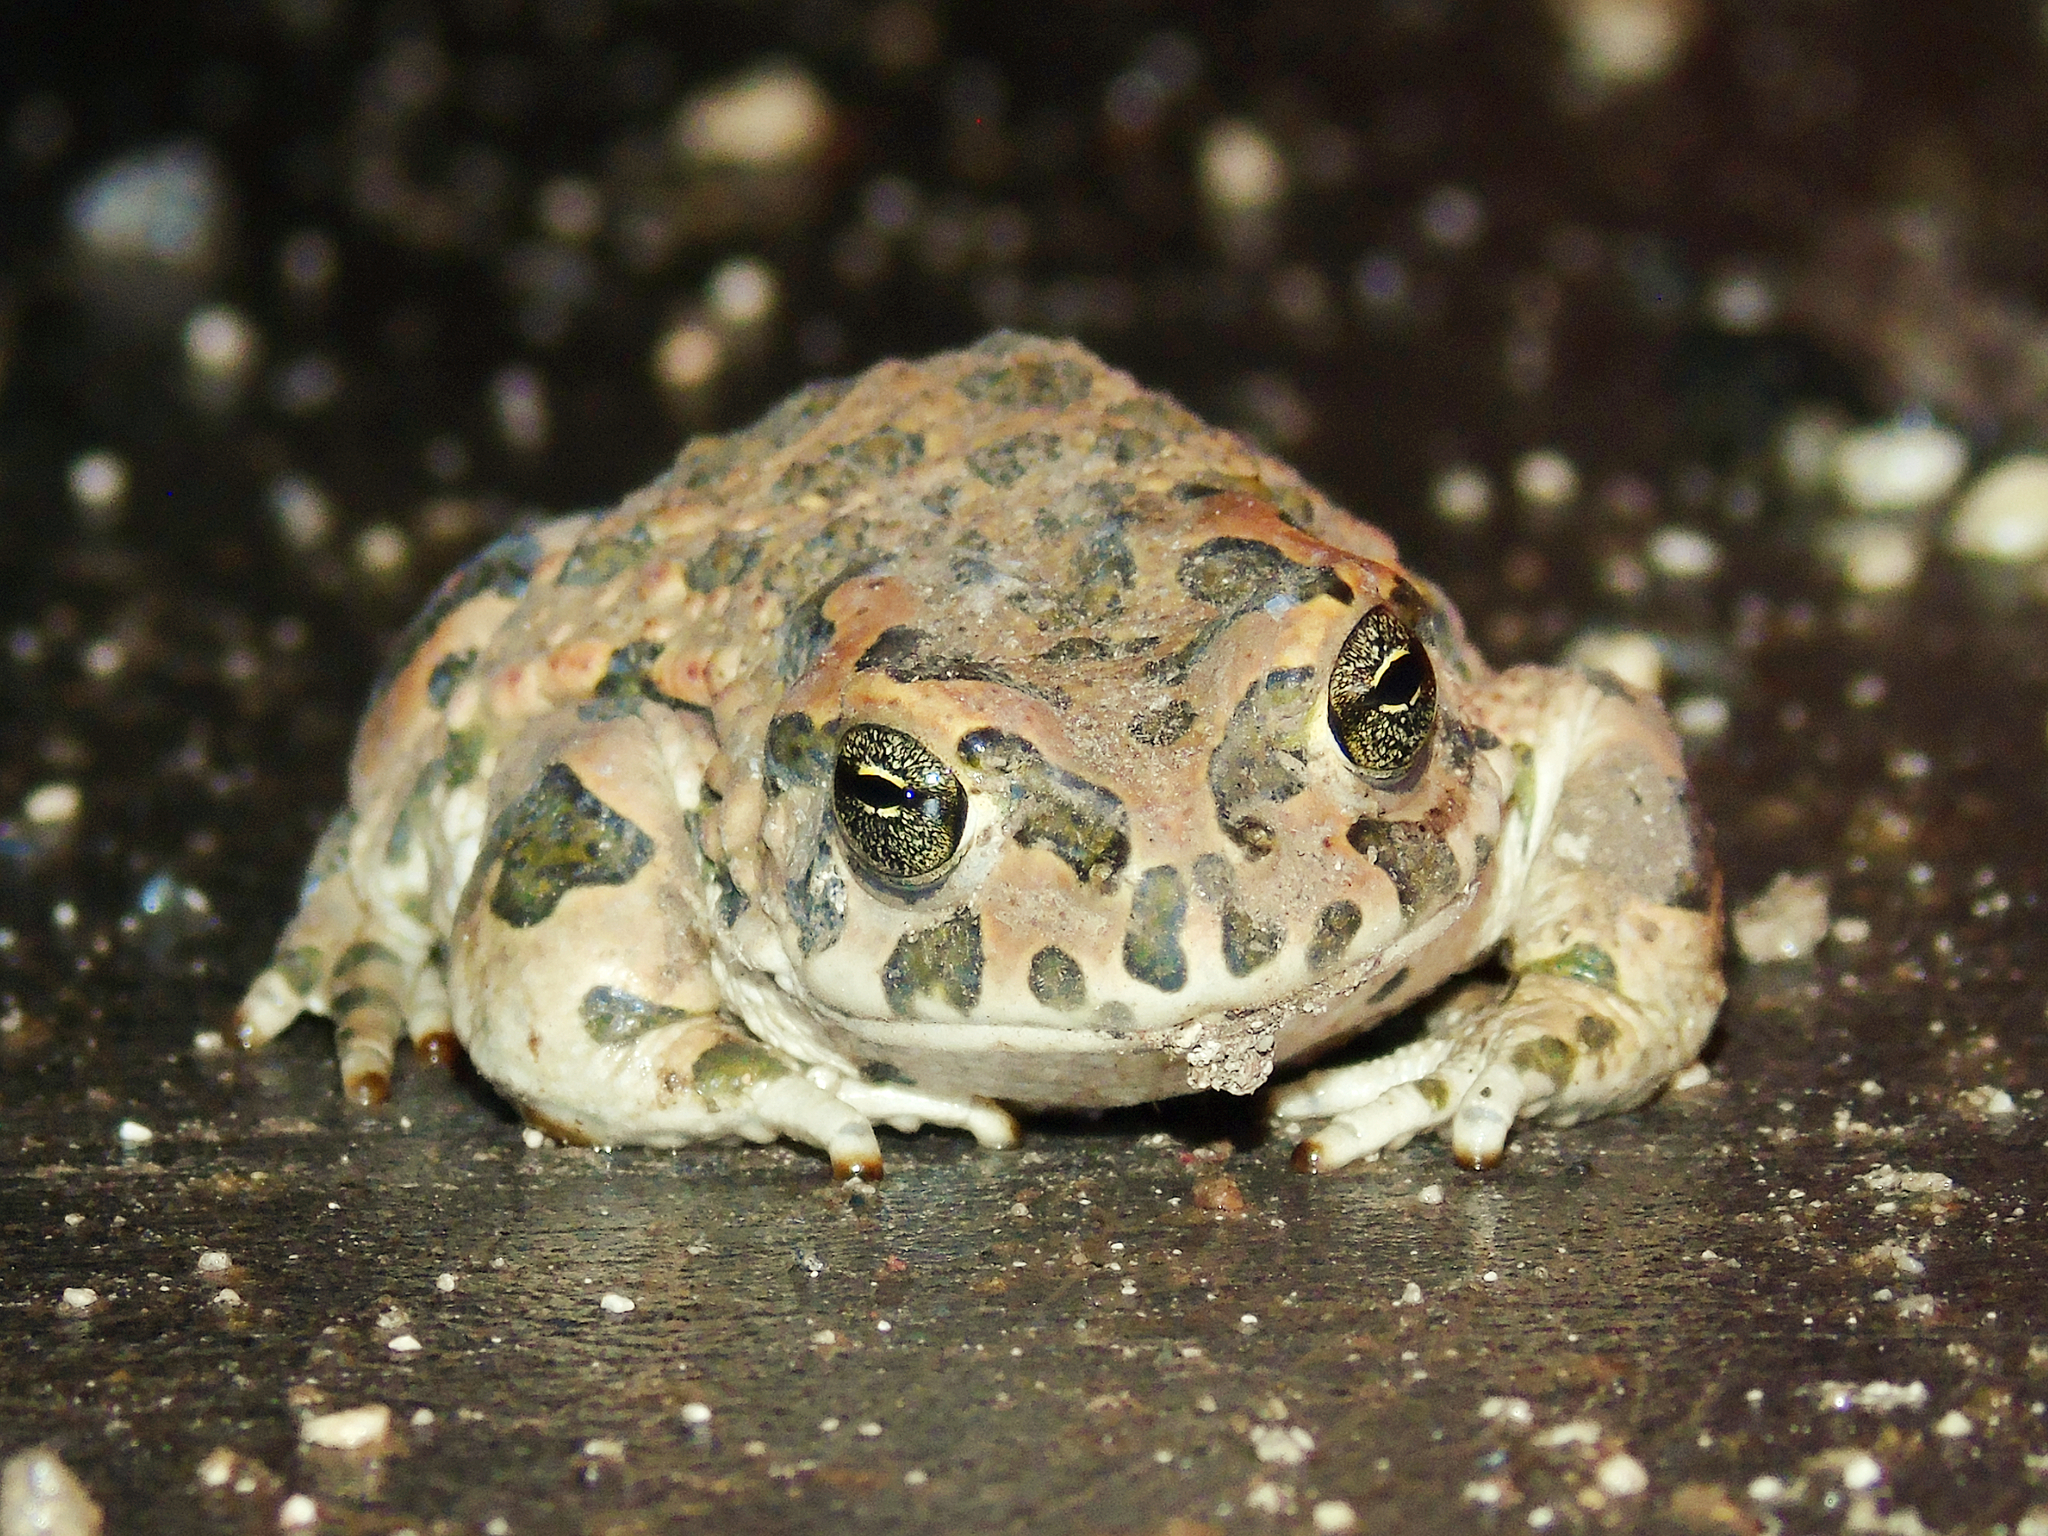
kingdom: Animalia
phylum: Chordata
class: Amphibia
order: Anura
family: Bufonidae
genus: Bufotes
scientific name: Bufotes viridis
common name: European green toad
